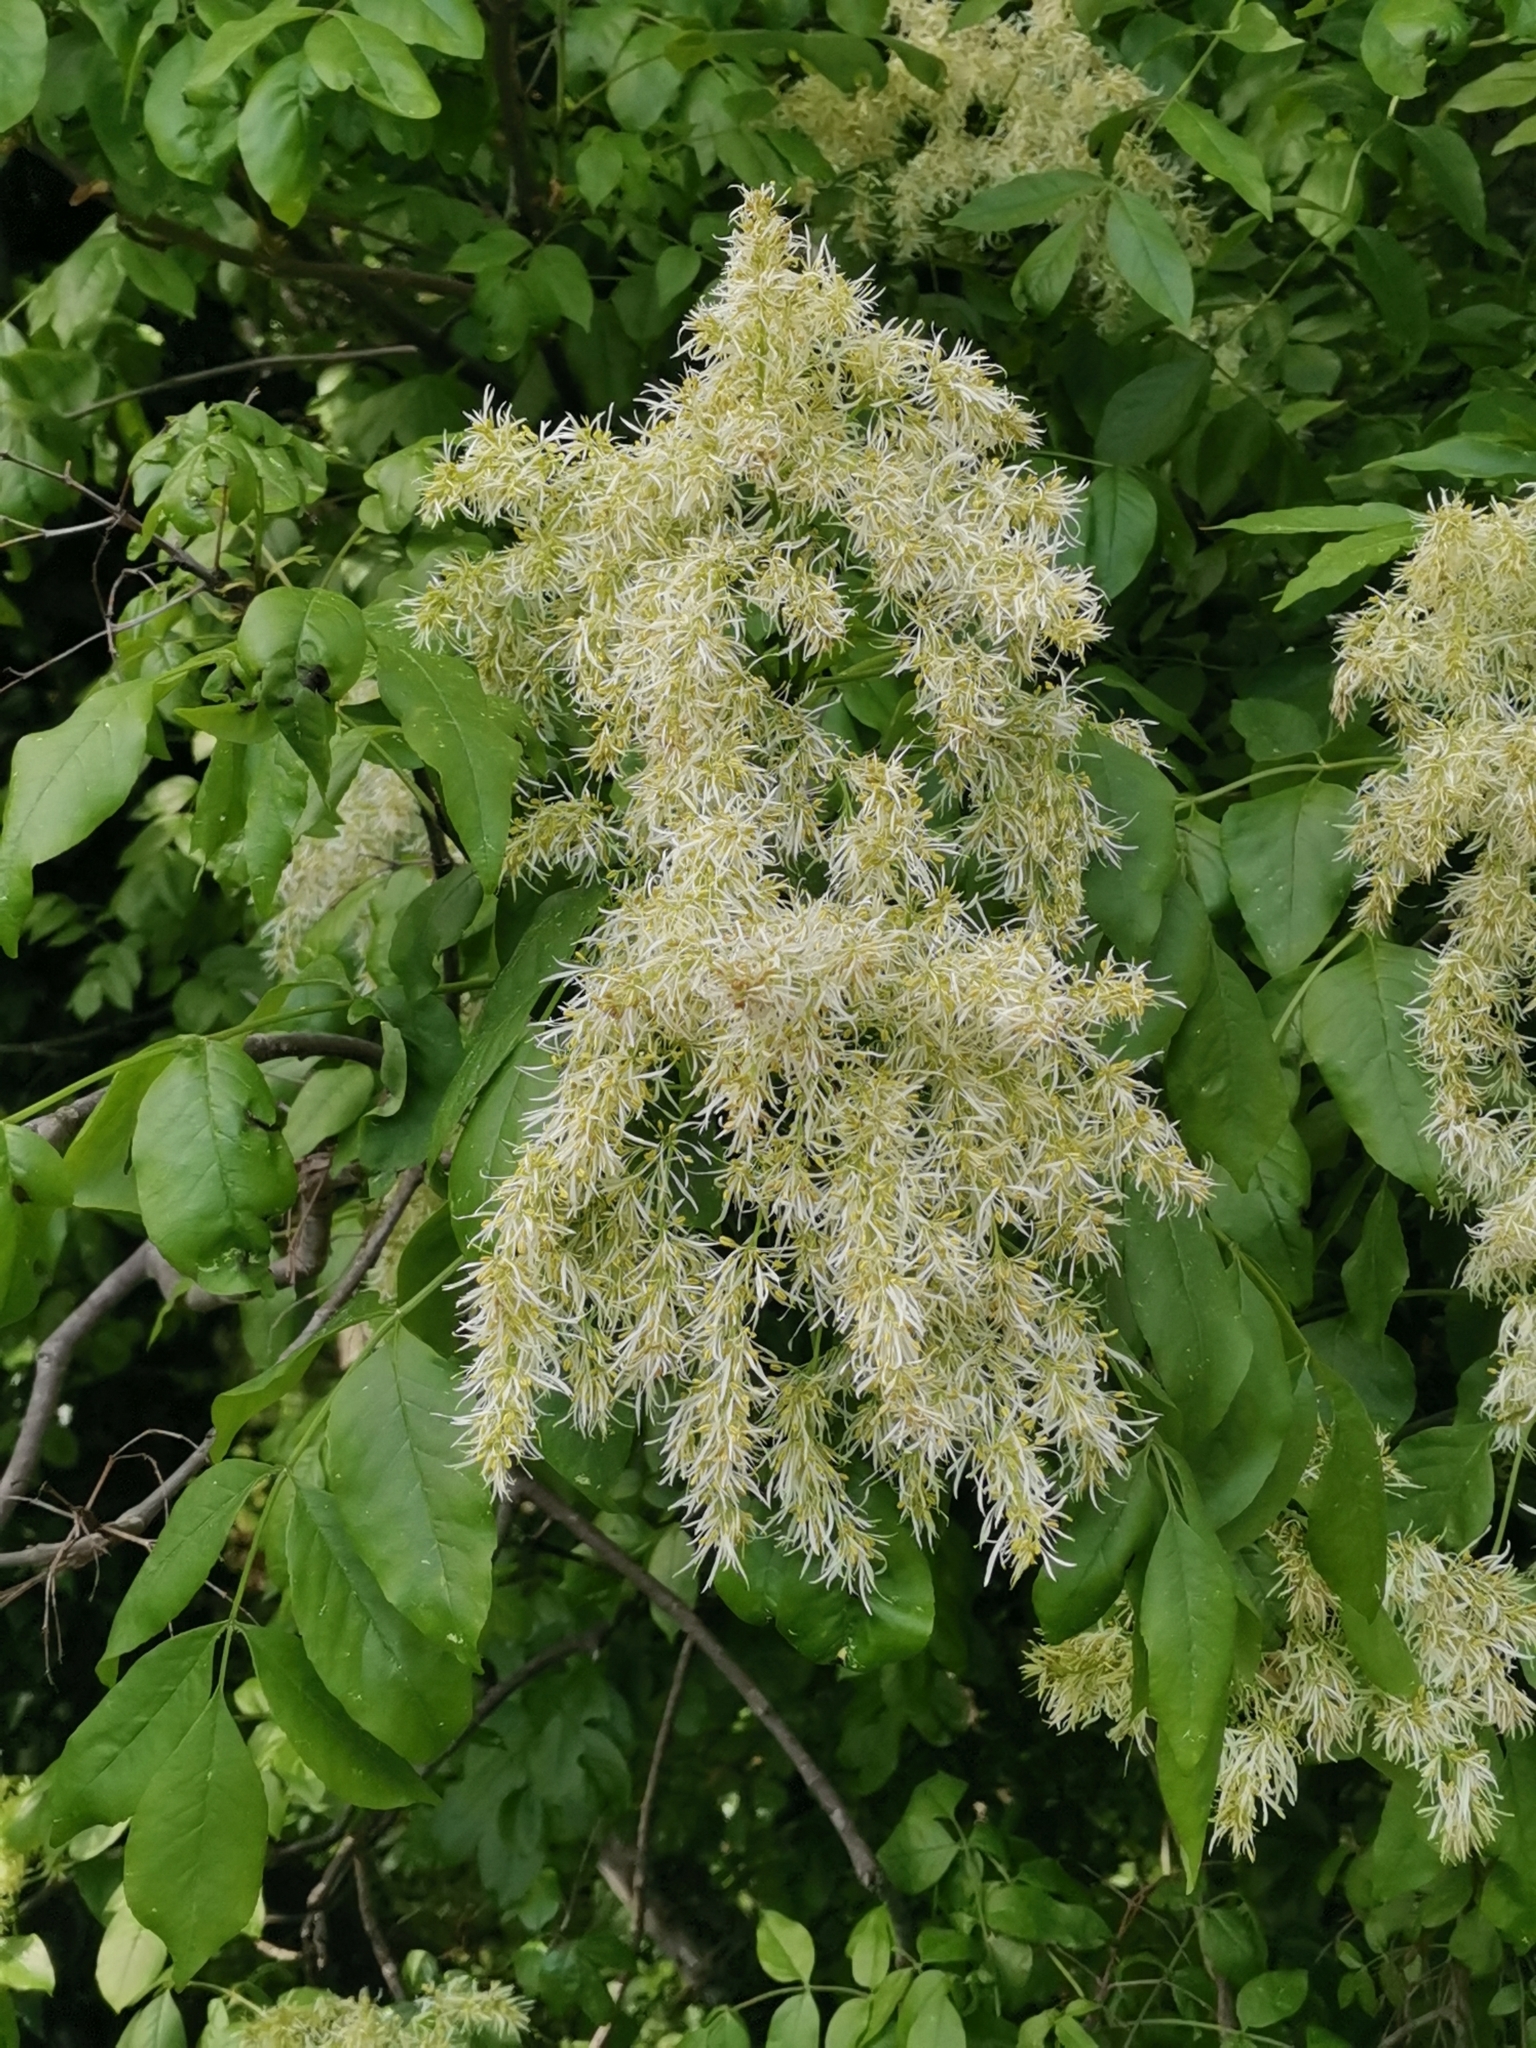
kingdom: Plantae
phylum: Tracheophyta
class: Magnoliopsida
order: Lamiales
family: Oleaceae
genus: Fraxinus
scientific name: Fraxinus ornus
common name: Manna ash
